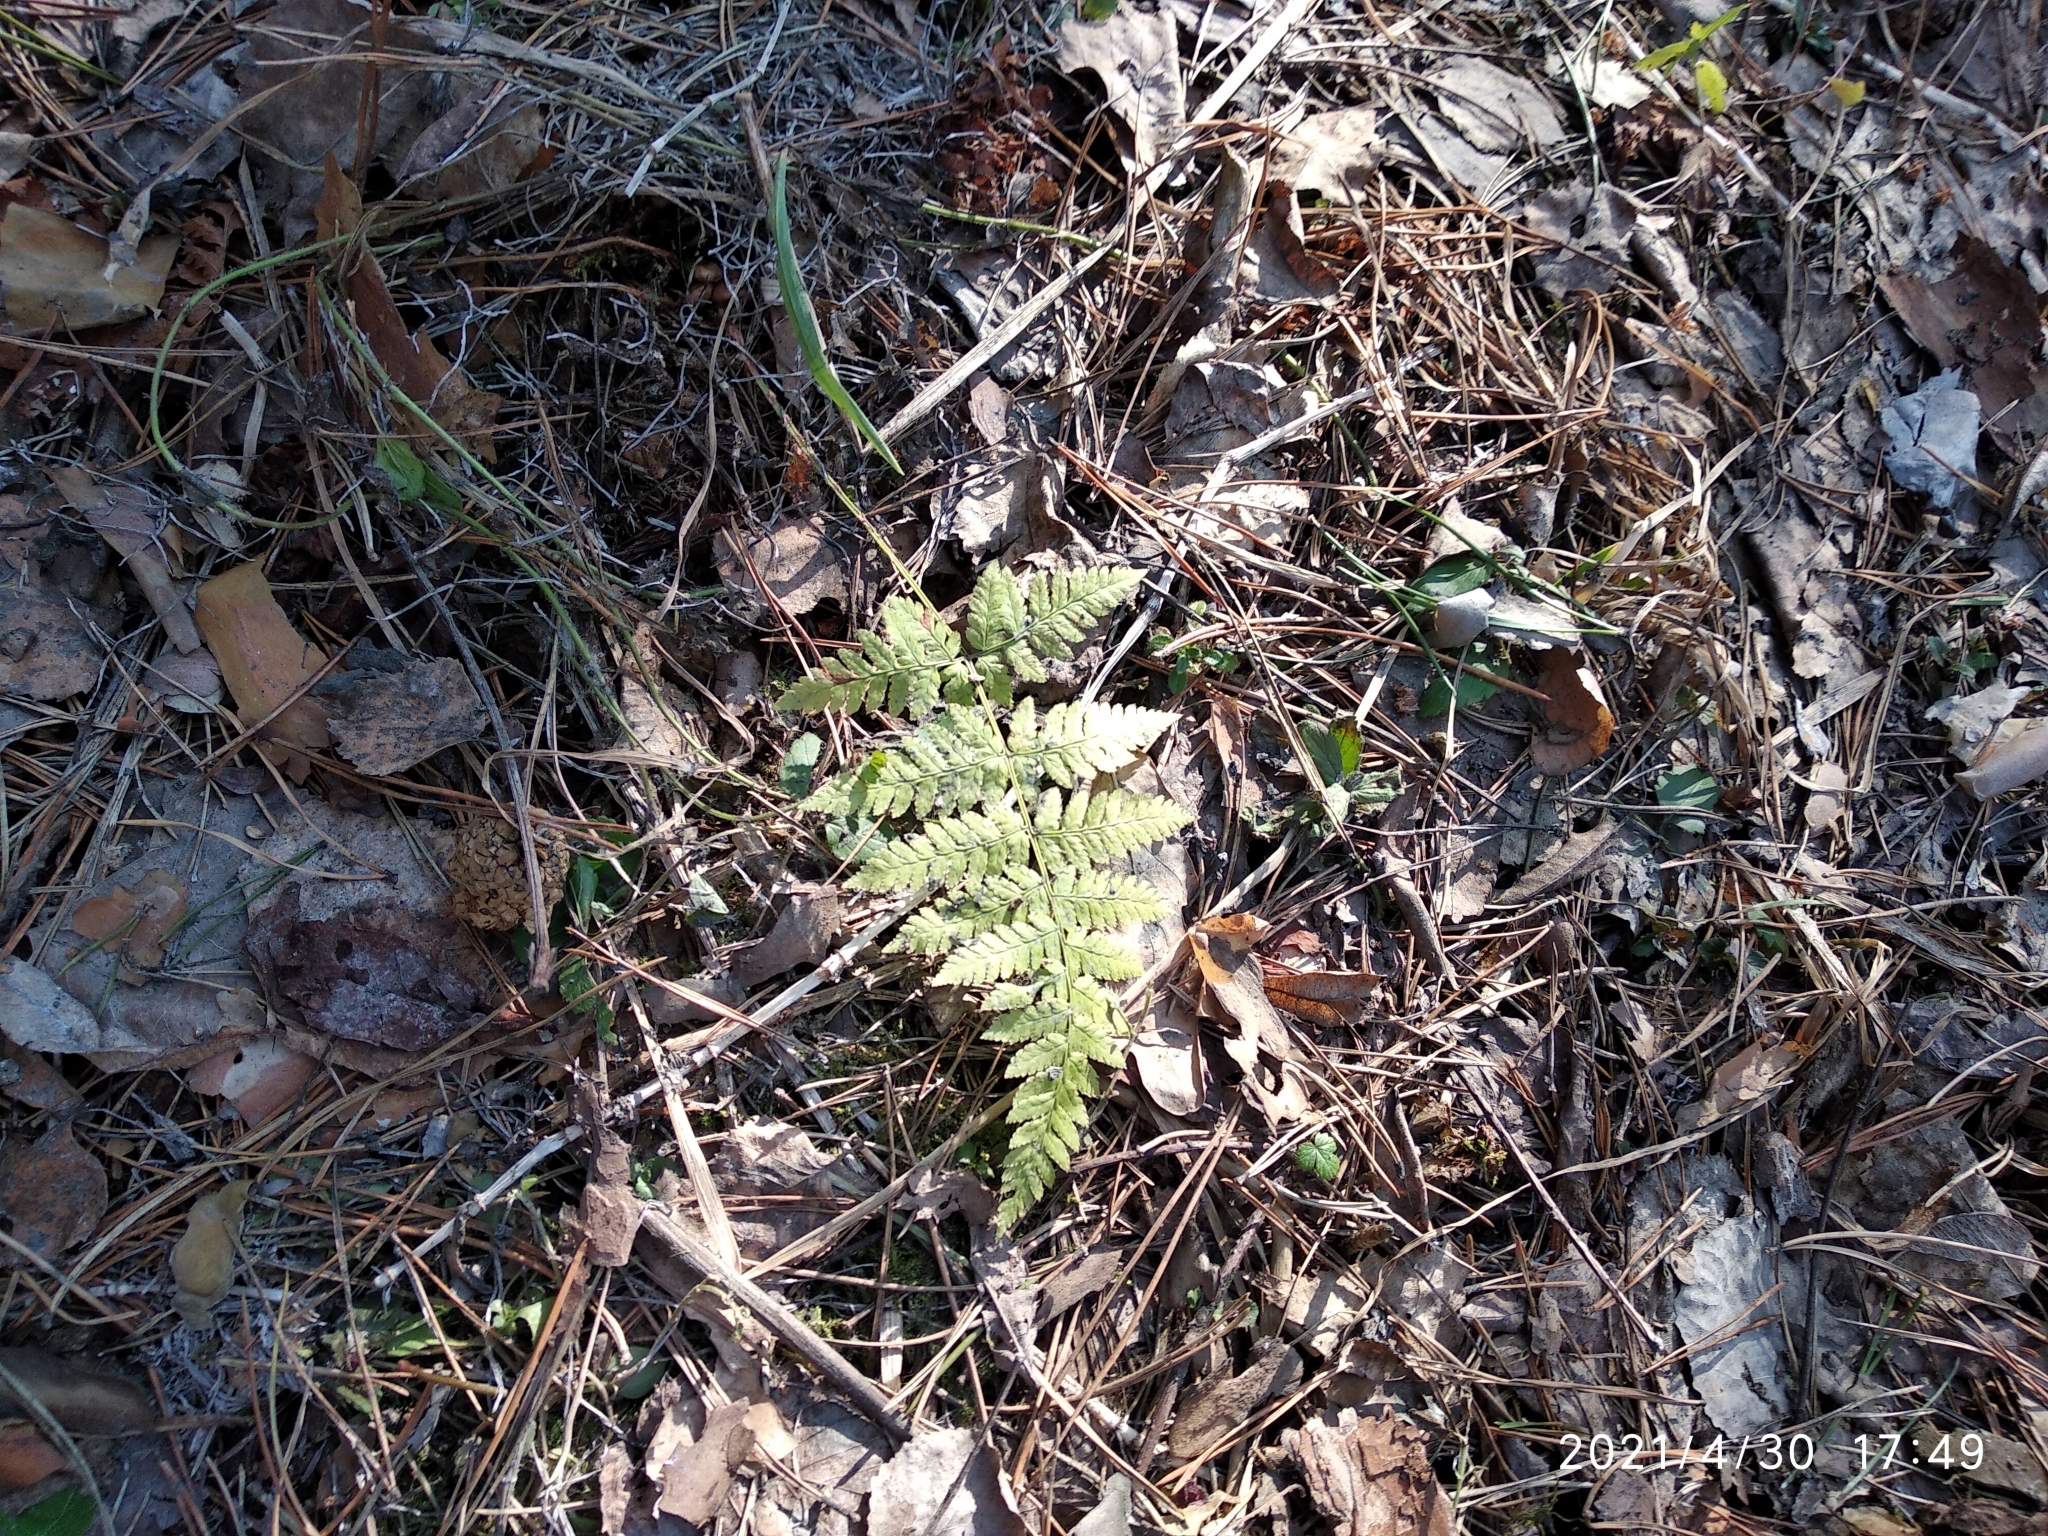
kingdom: Plantae
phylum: Tracheophyta
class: Polypodiopsida
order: Polypodiales
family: Dryopteridaceae
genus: Dryopteris
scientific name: Dryopteris carthusiana
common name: Narrow buckler-fern
